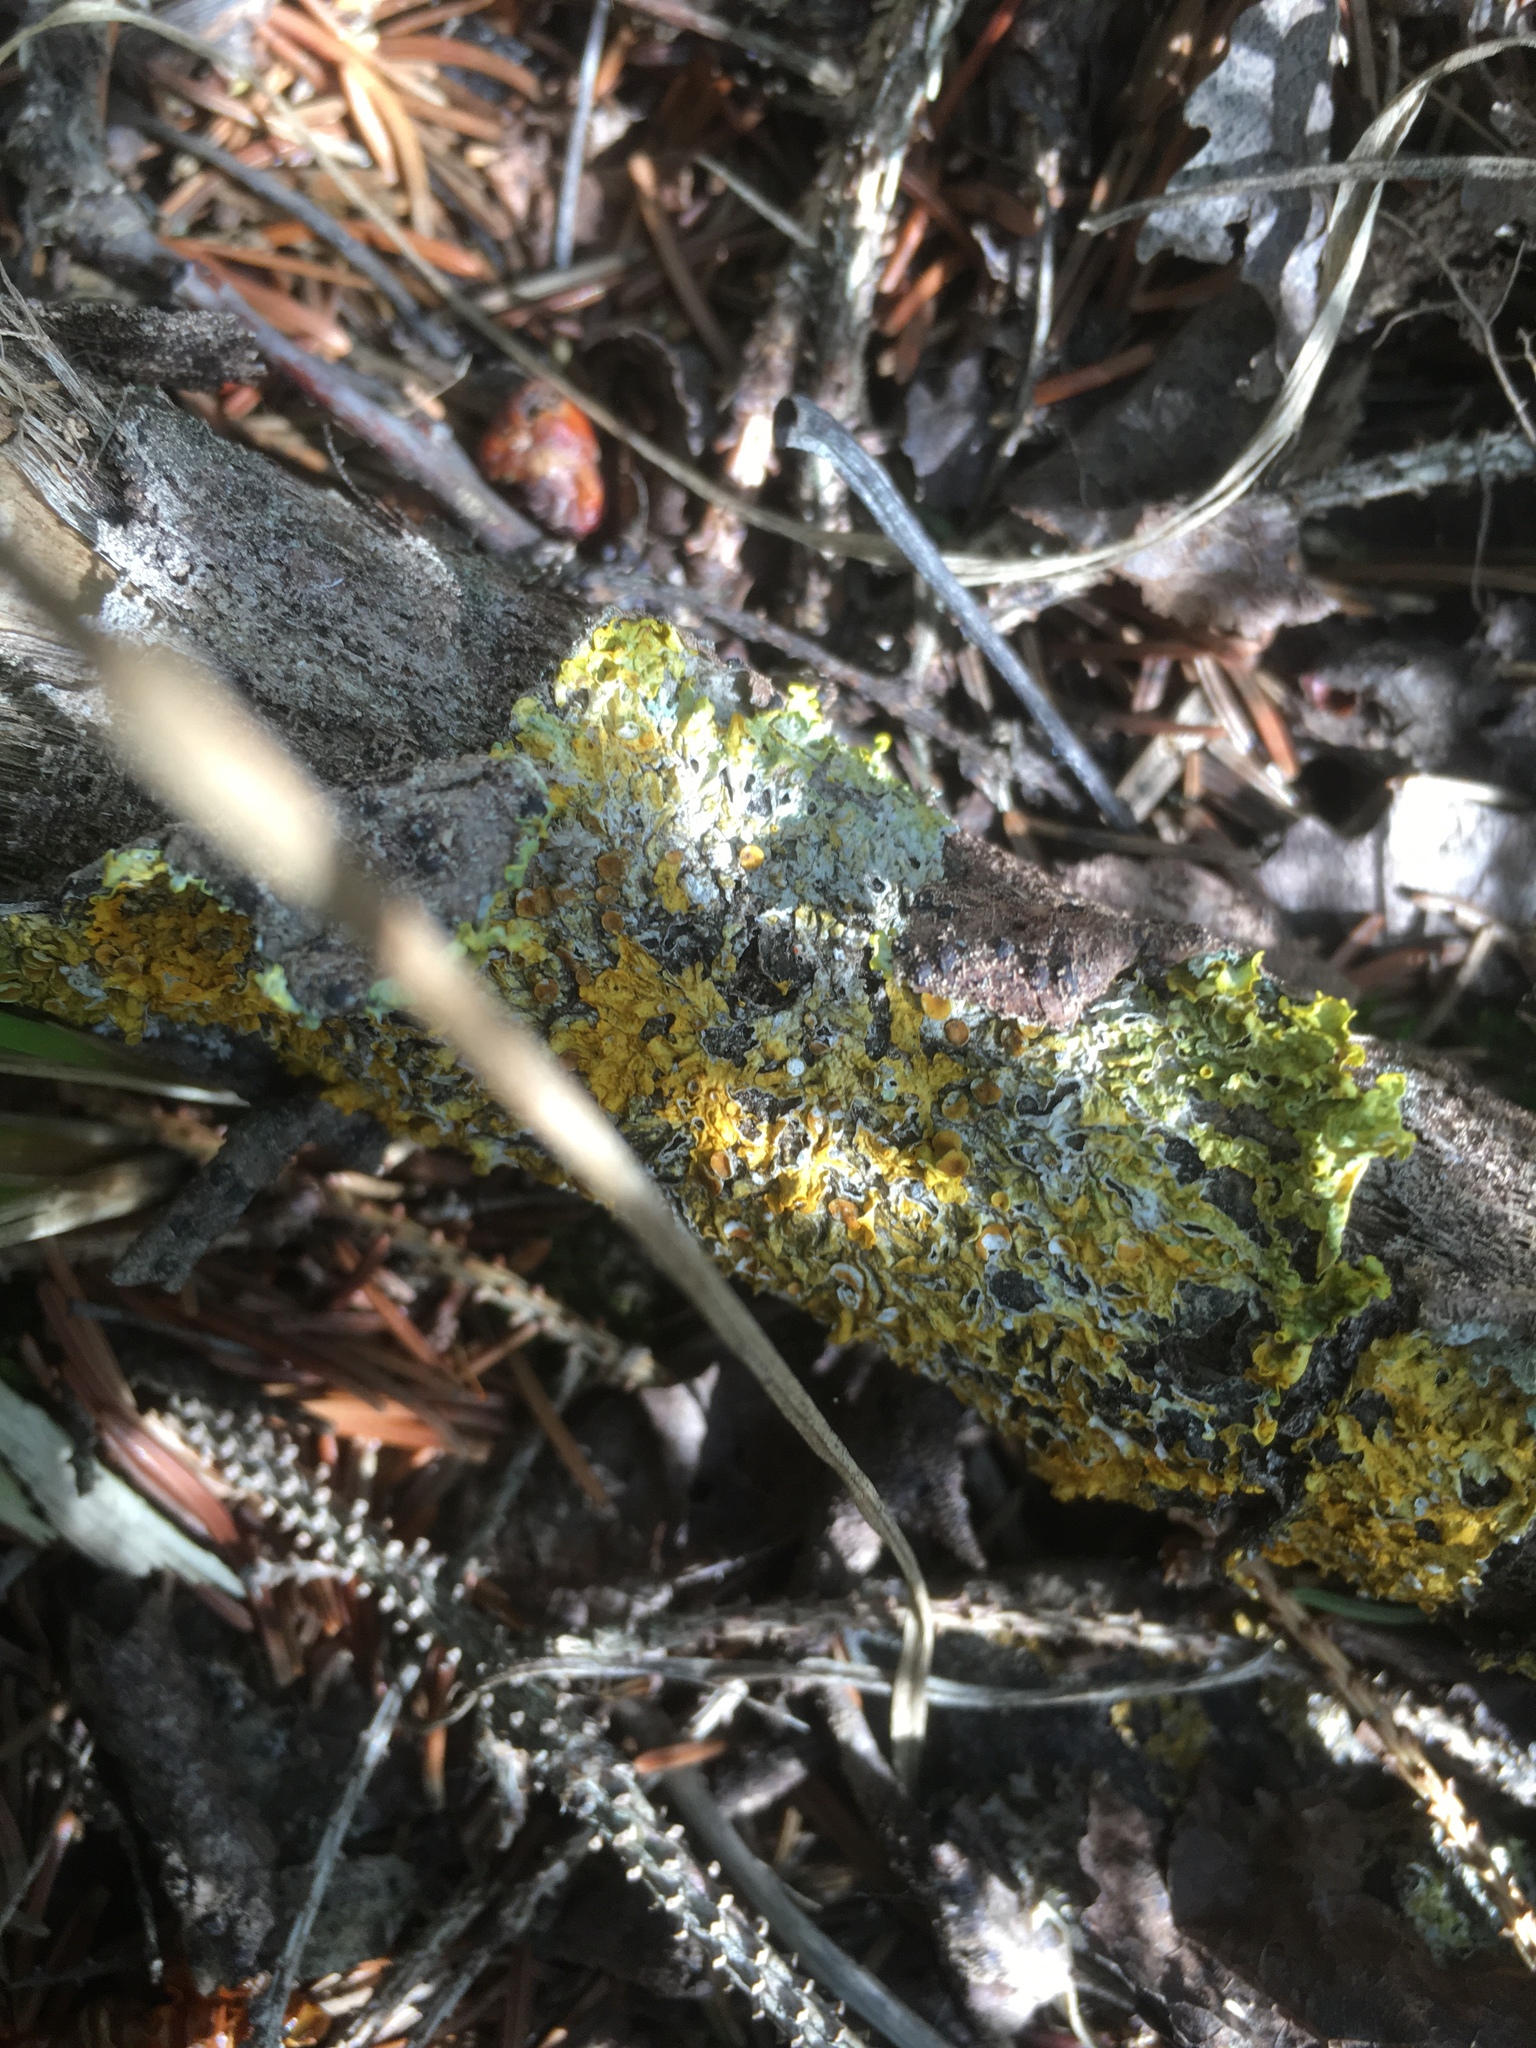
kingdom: Fungi
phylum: Ascomycota
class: Lecanoromycetes
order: Teloschistales
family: Teloschistaceae
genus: Xanthoria
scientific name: Xanthoria parietina
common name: Common orange lichen
